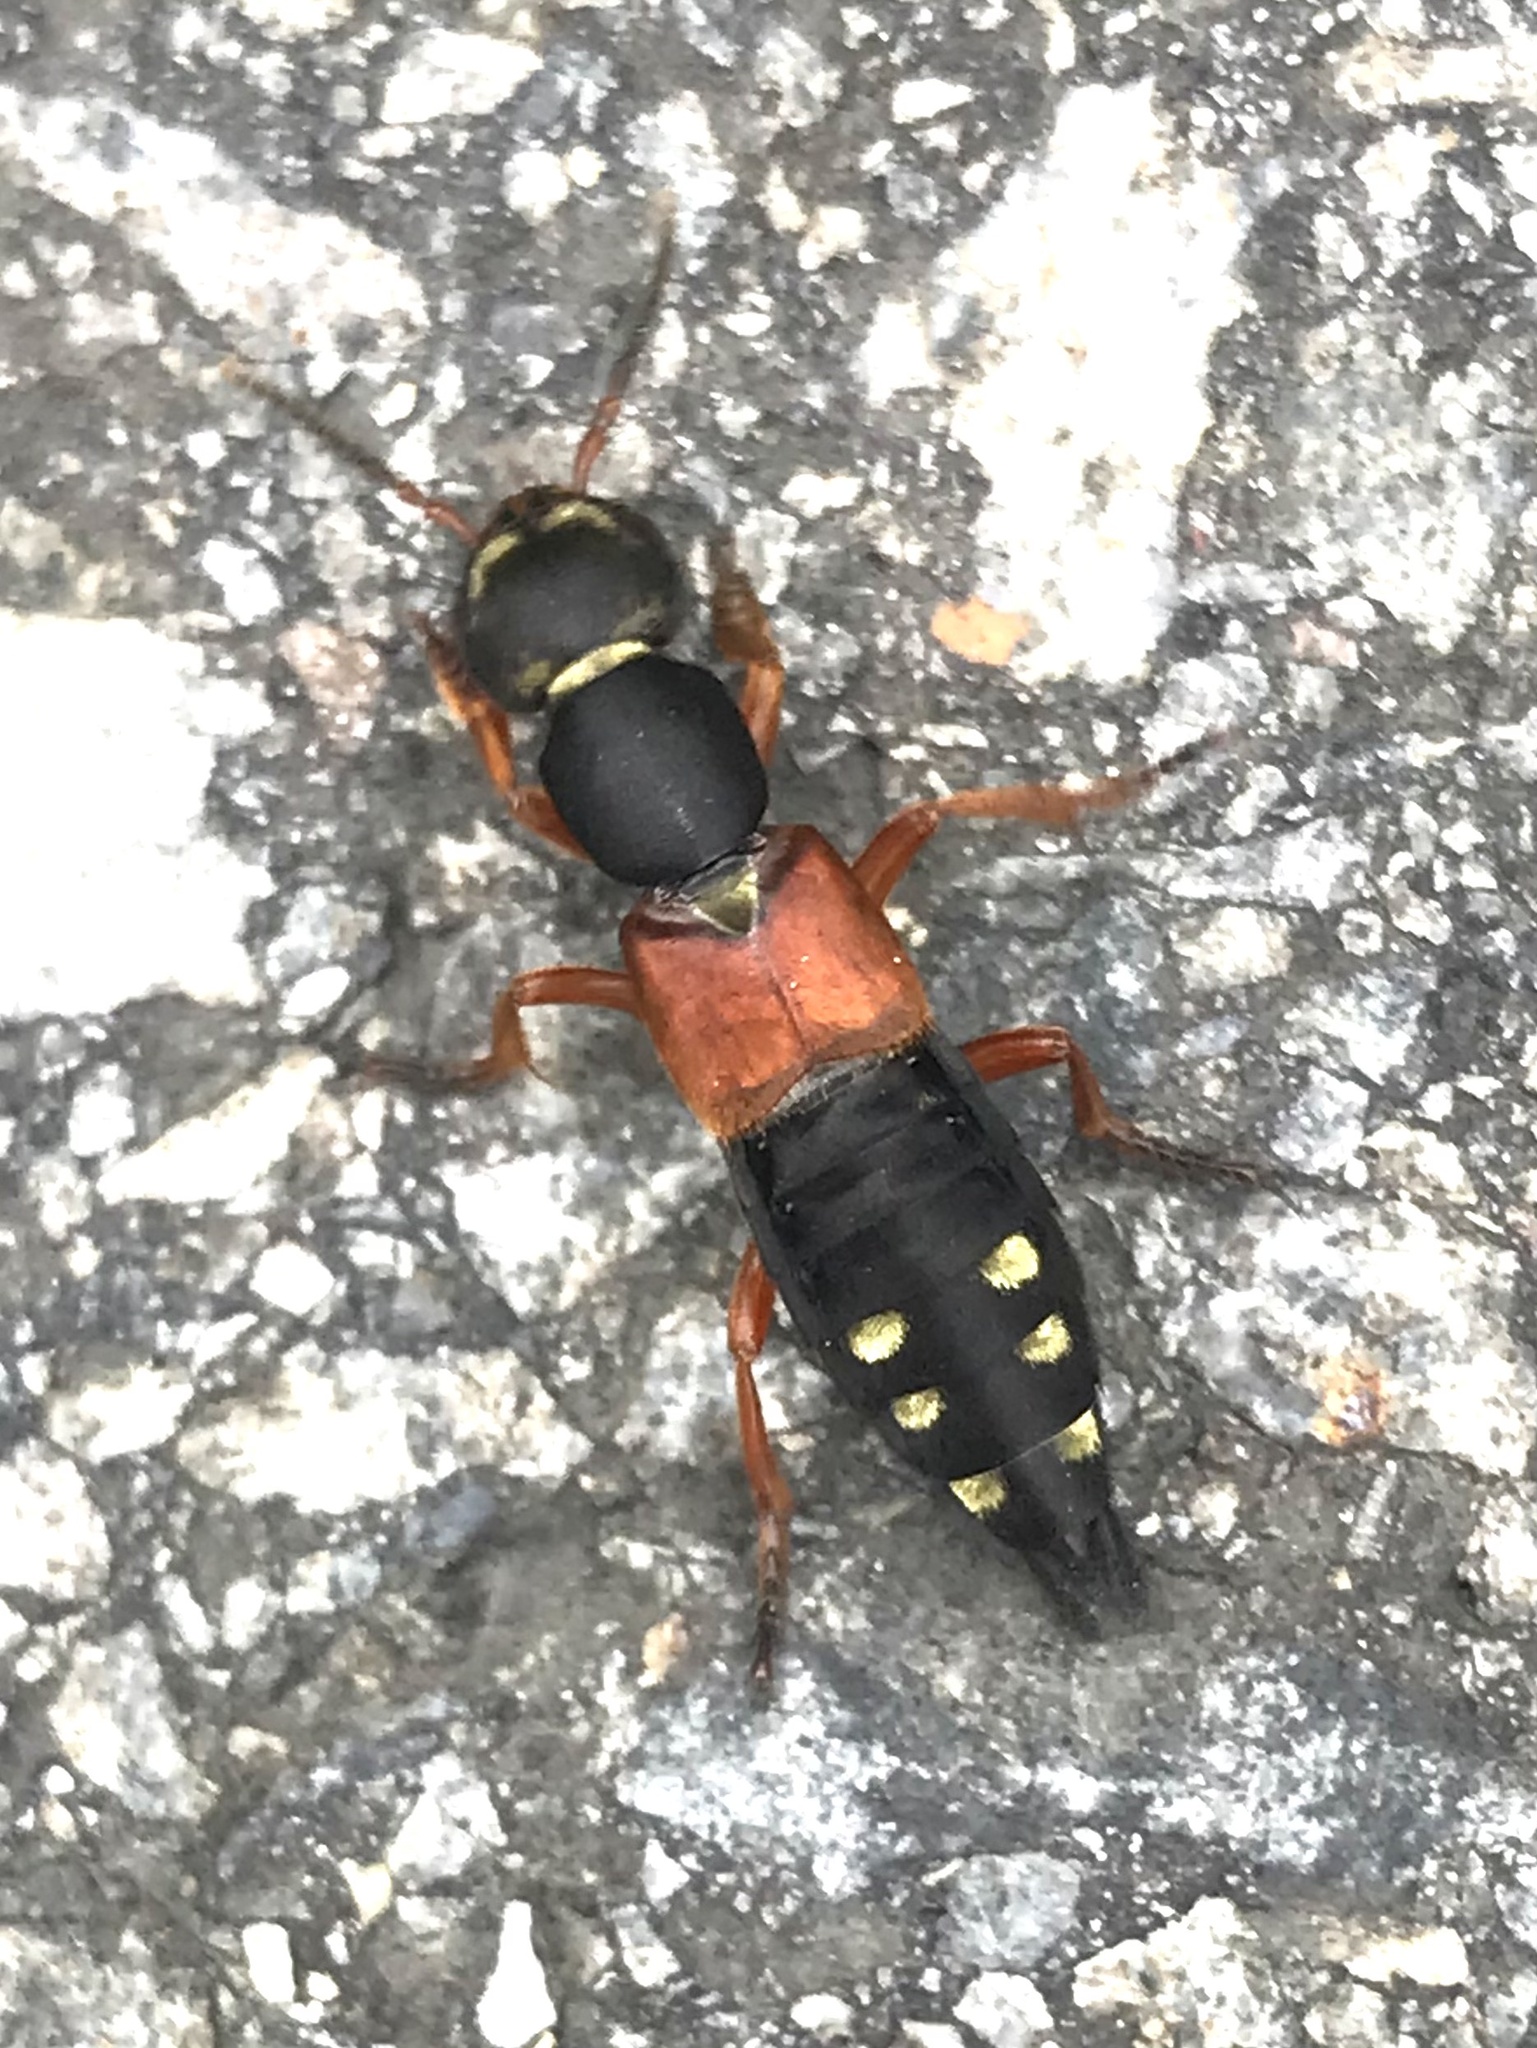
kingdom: Animalia
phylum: Arthropoda
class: Insecta
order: Coleoptera
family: Staphylinidae
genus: Staphylinus
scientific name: Staphylinus erythropterus
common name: Staph beetle
